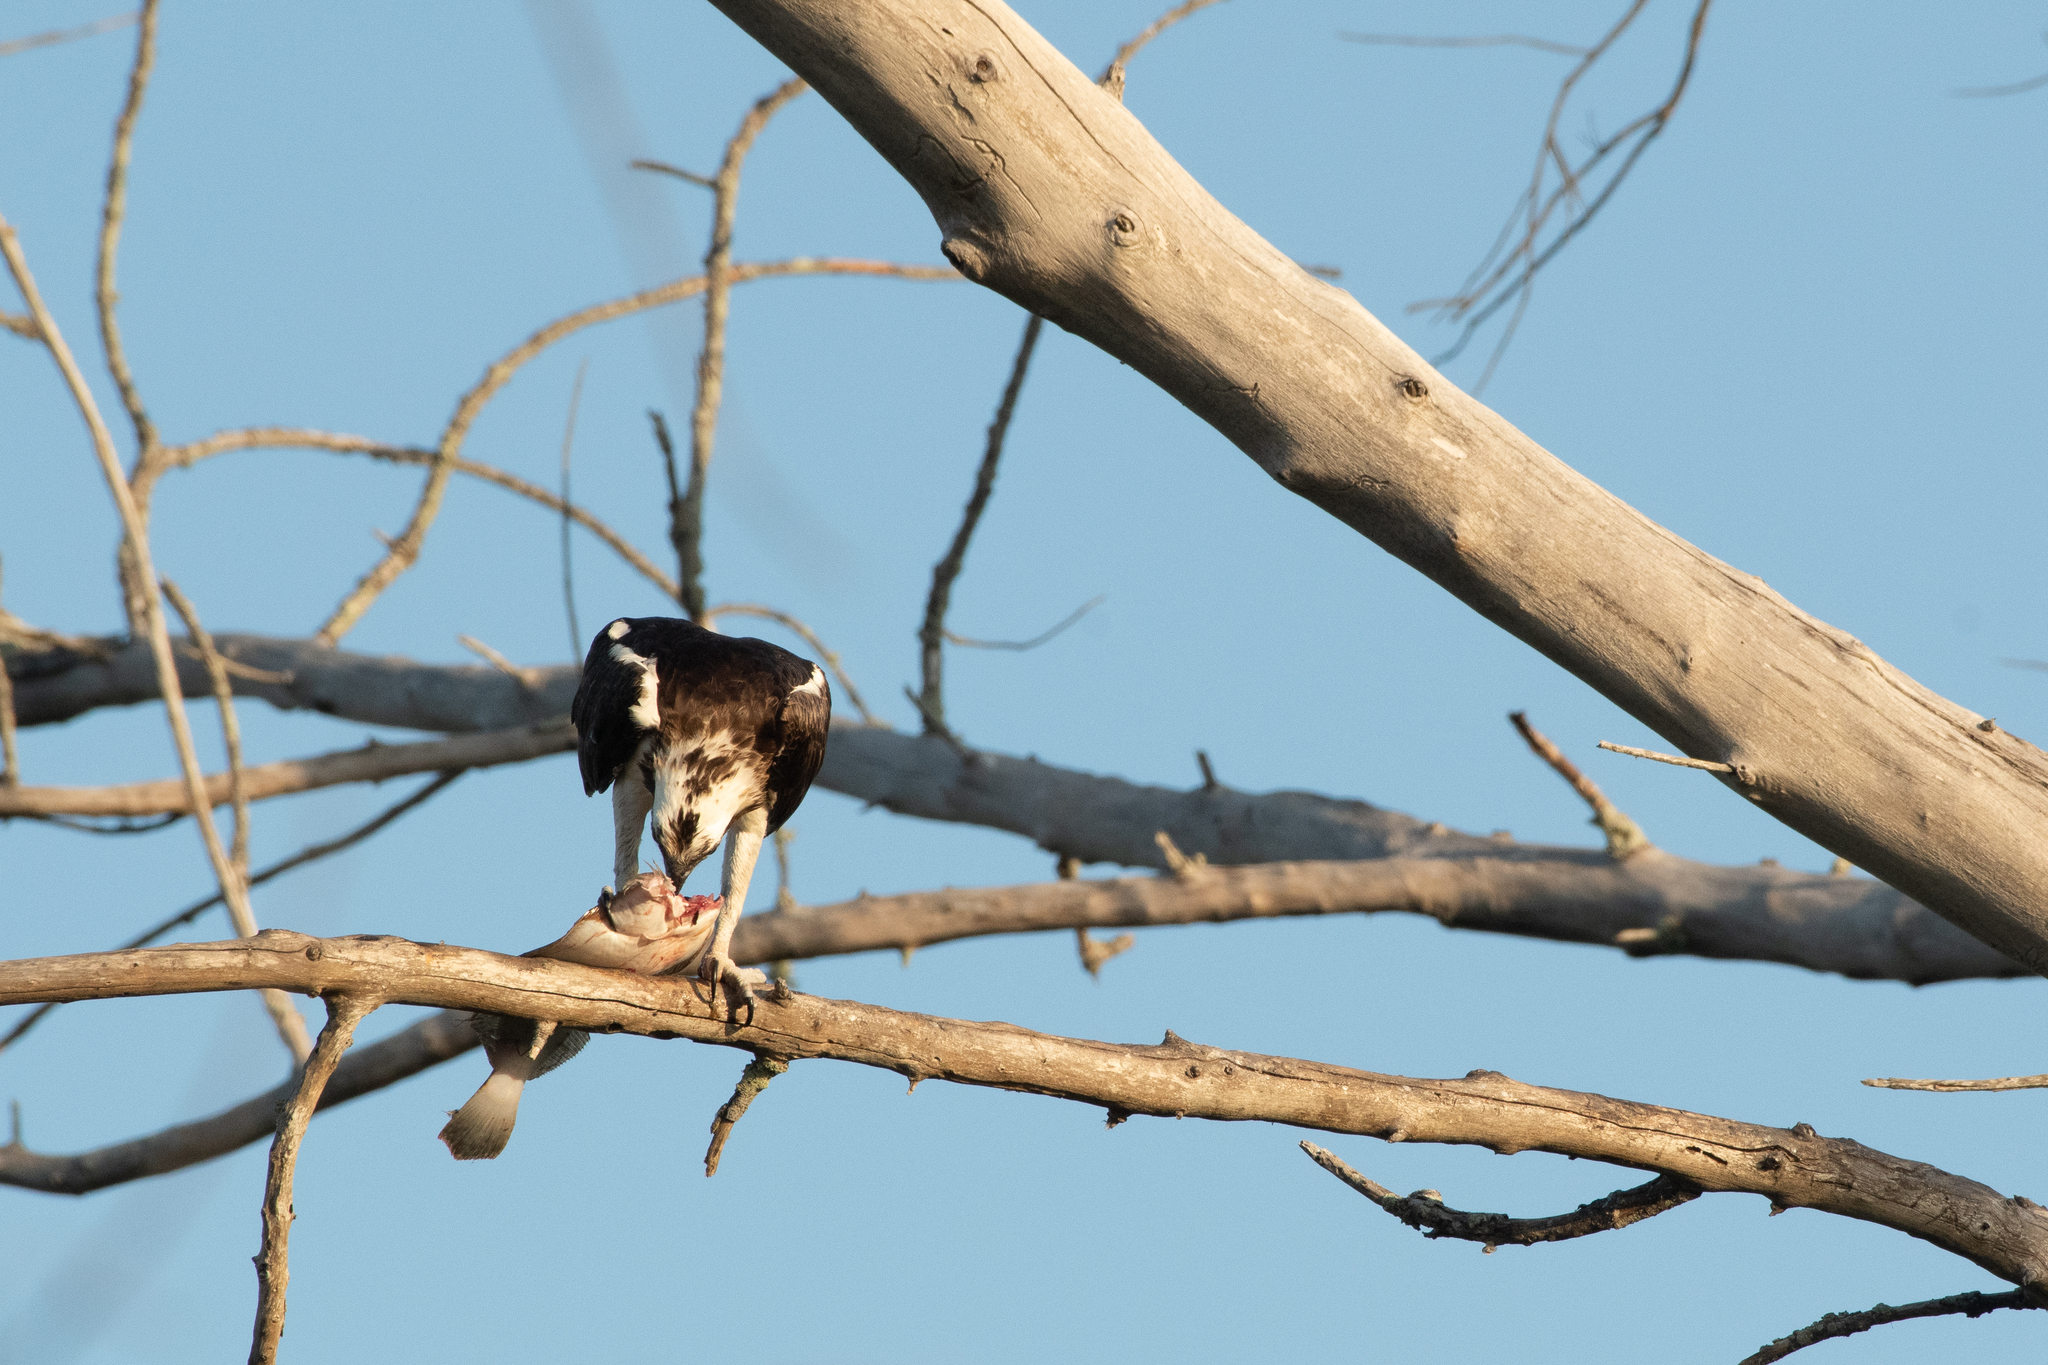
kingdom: Animalia
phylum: Chordata
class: Aves
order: Accipitriformes
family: Pandionidae
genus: Pandion
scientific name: Pandion haliaetus
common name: Osprey
